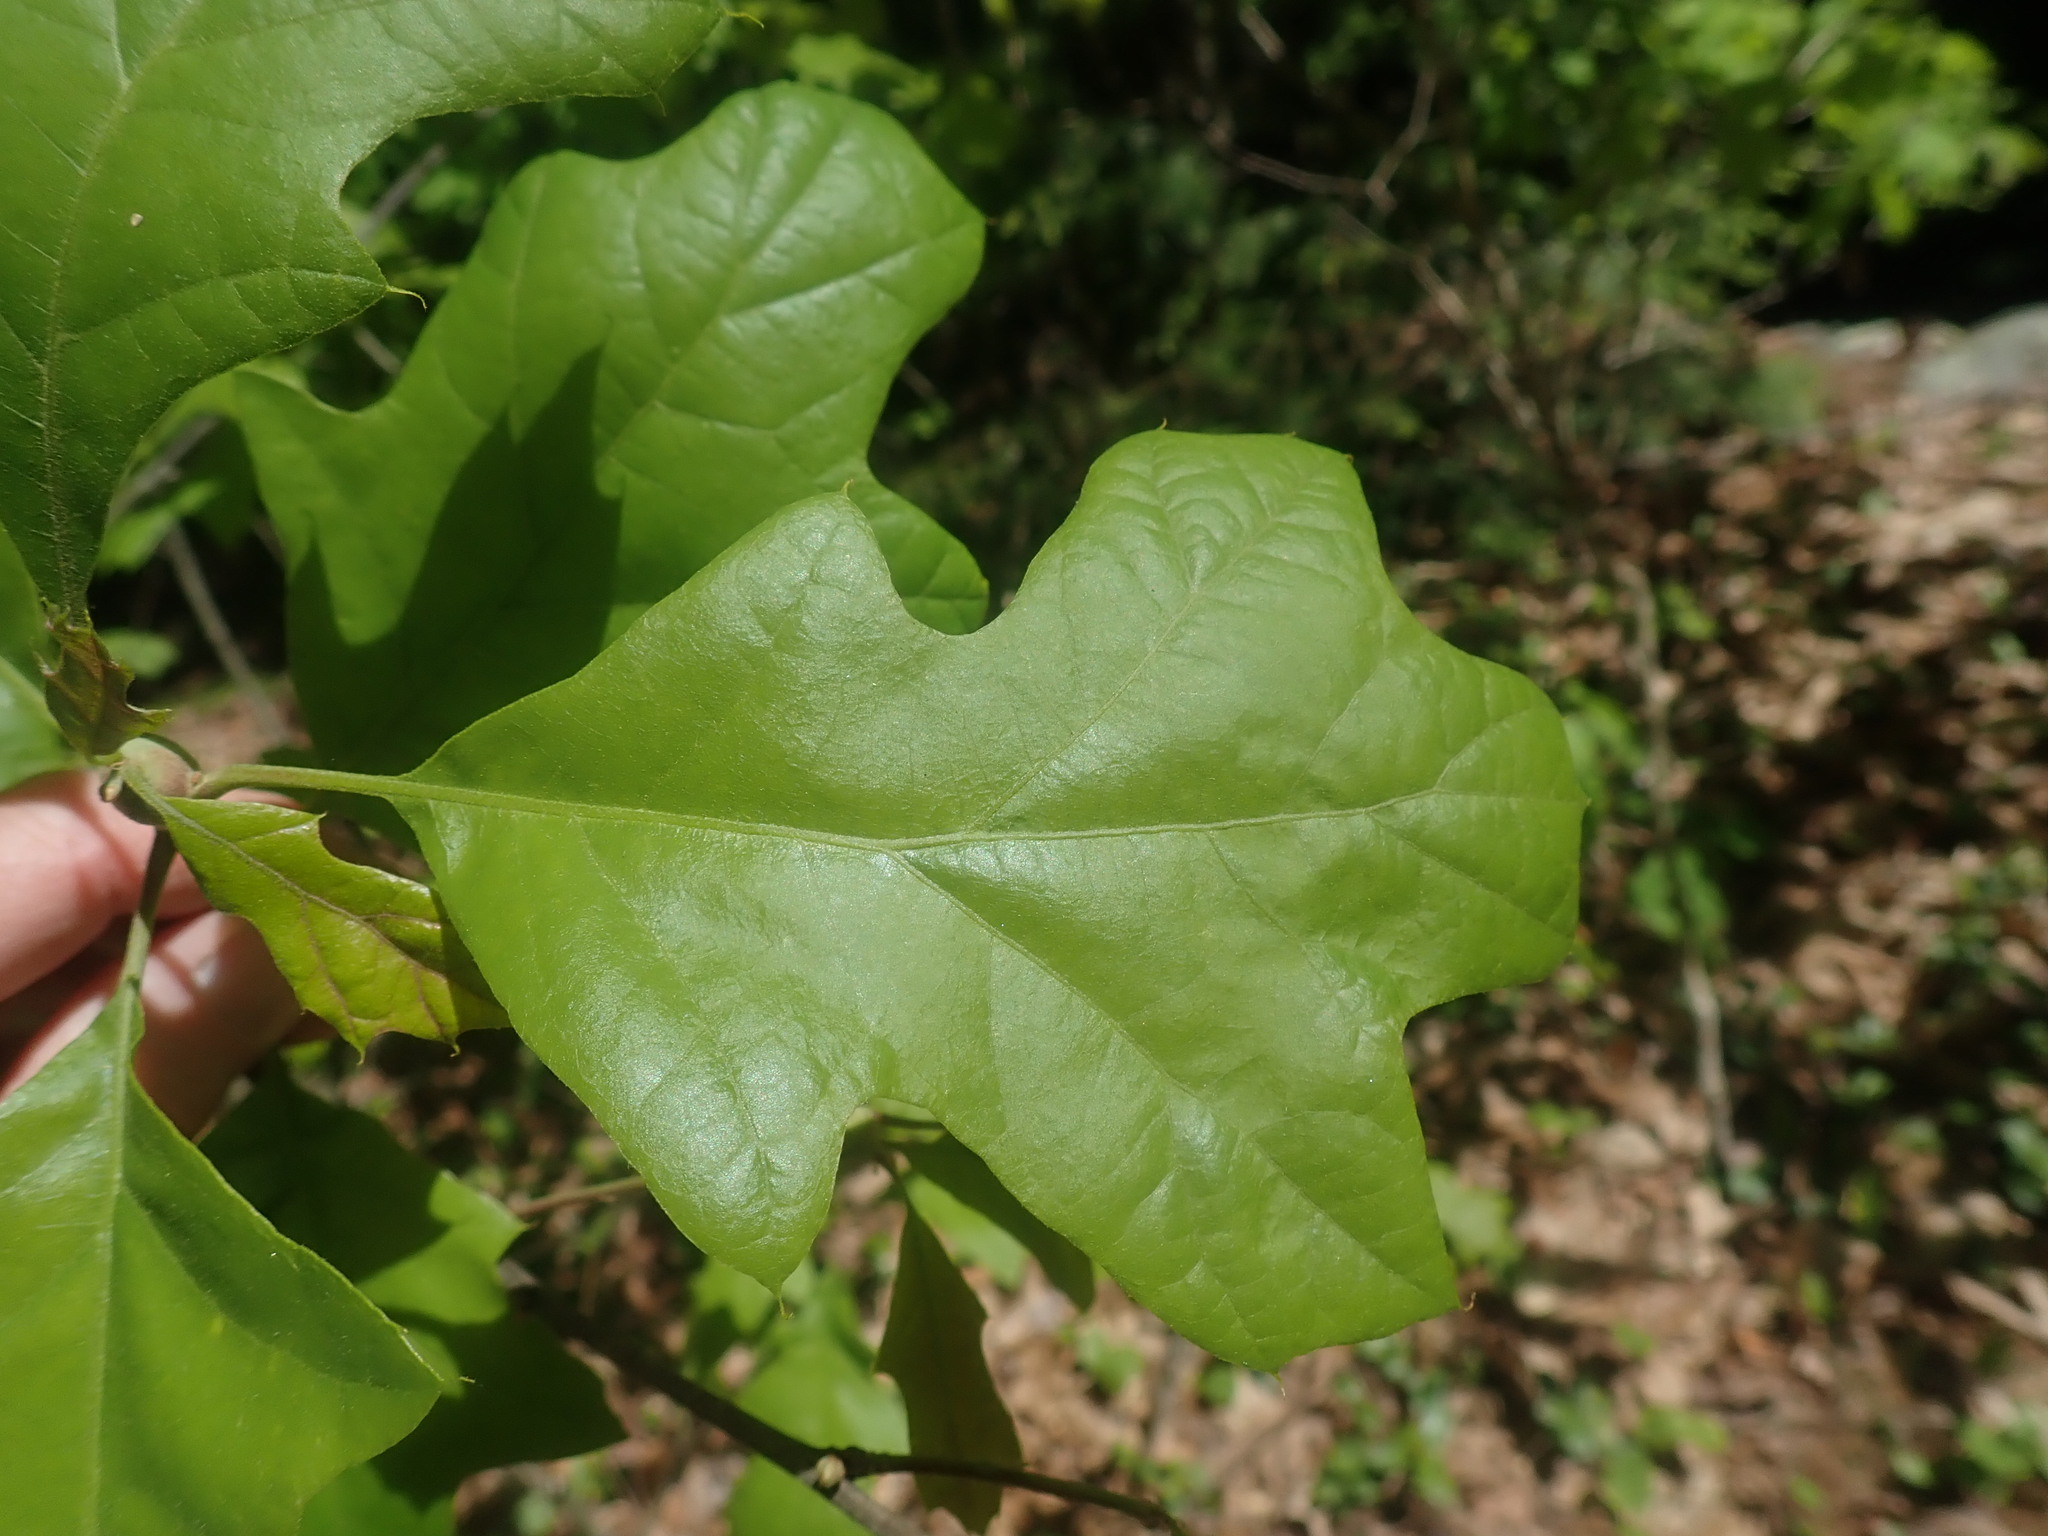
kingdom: Plantae
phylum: Tracheophyta
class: Magnoliopsida
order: Fagales
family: Fagaceae
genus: Quercus
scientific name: Quercus ilicifolia
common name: Bear oak
